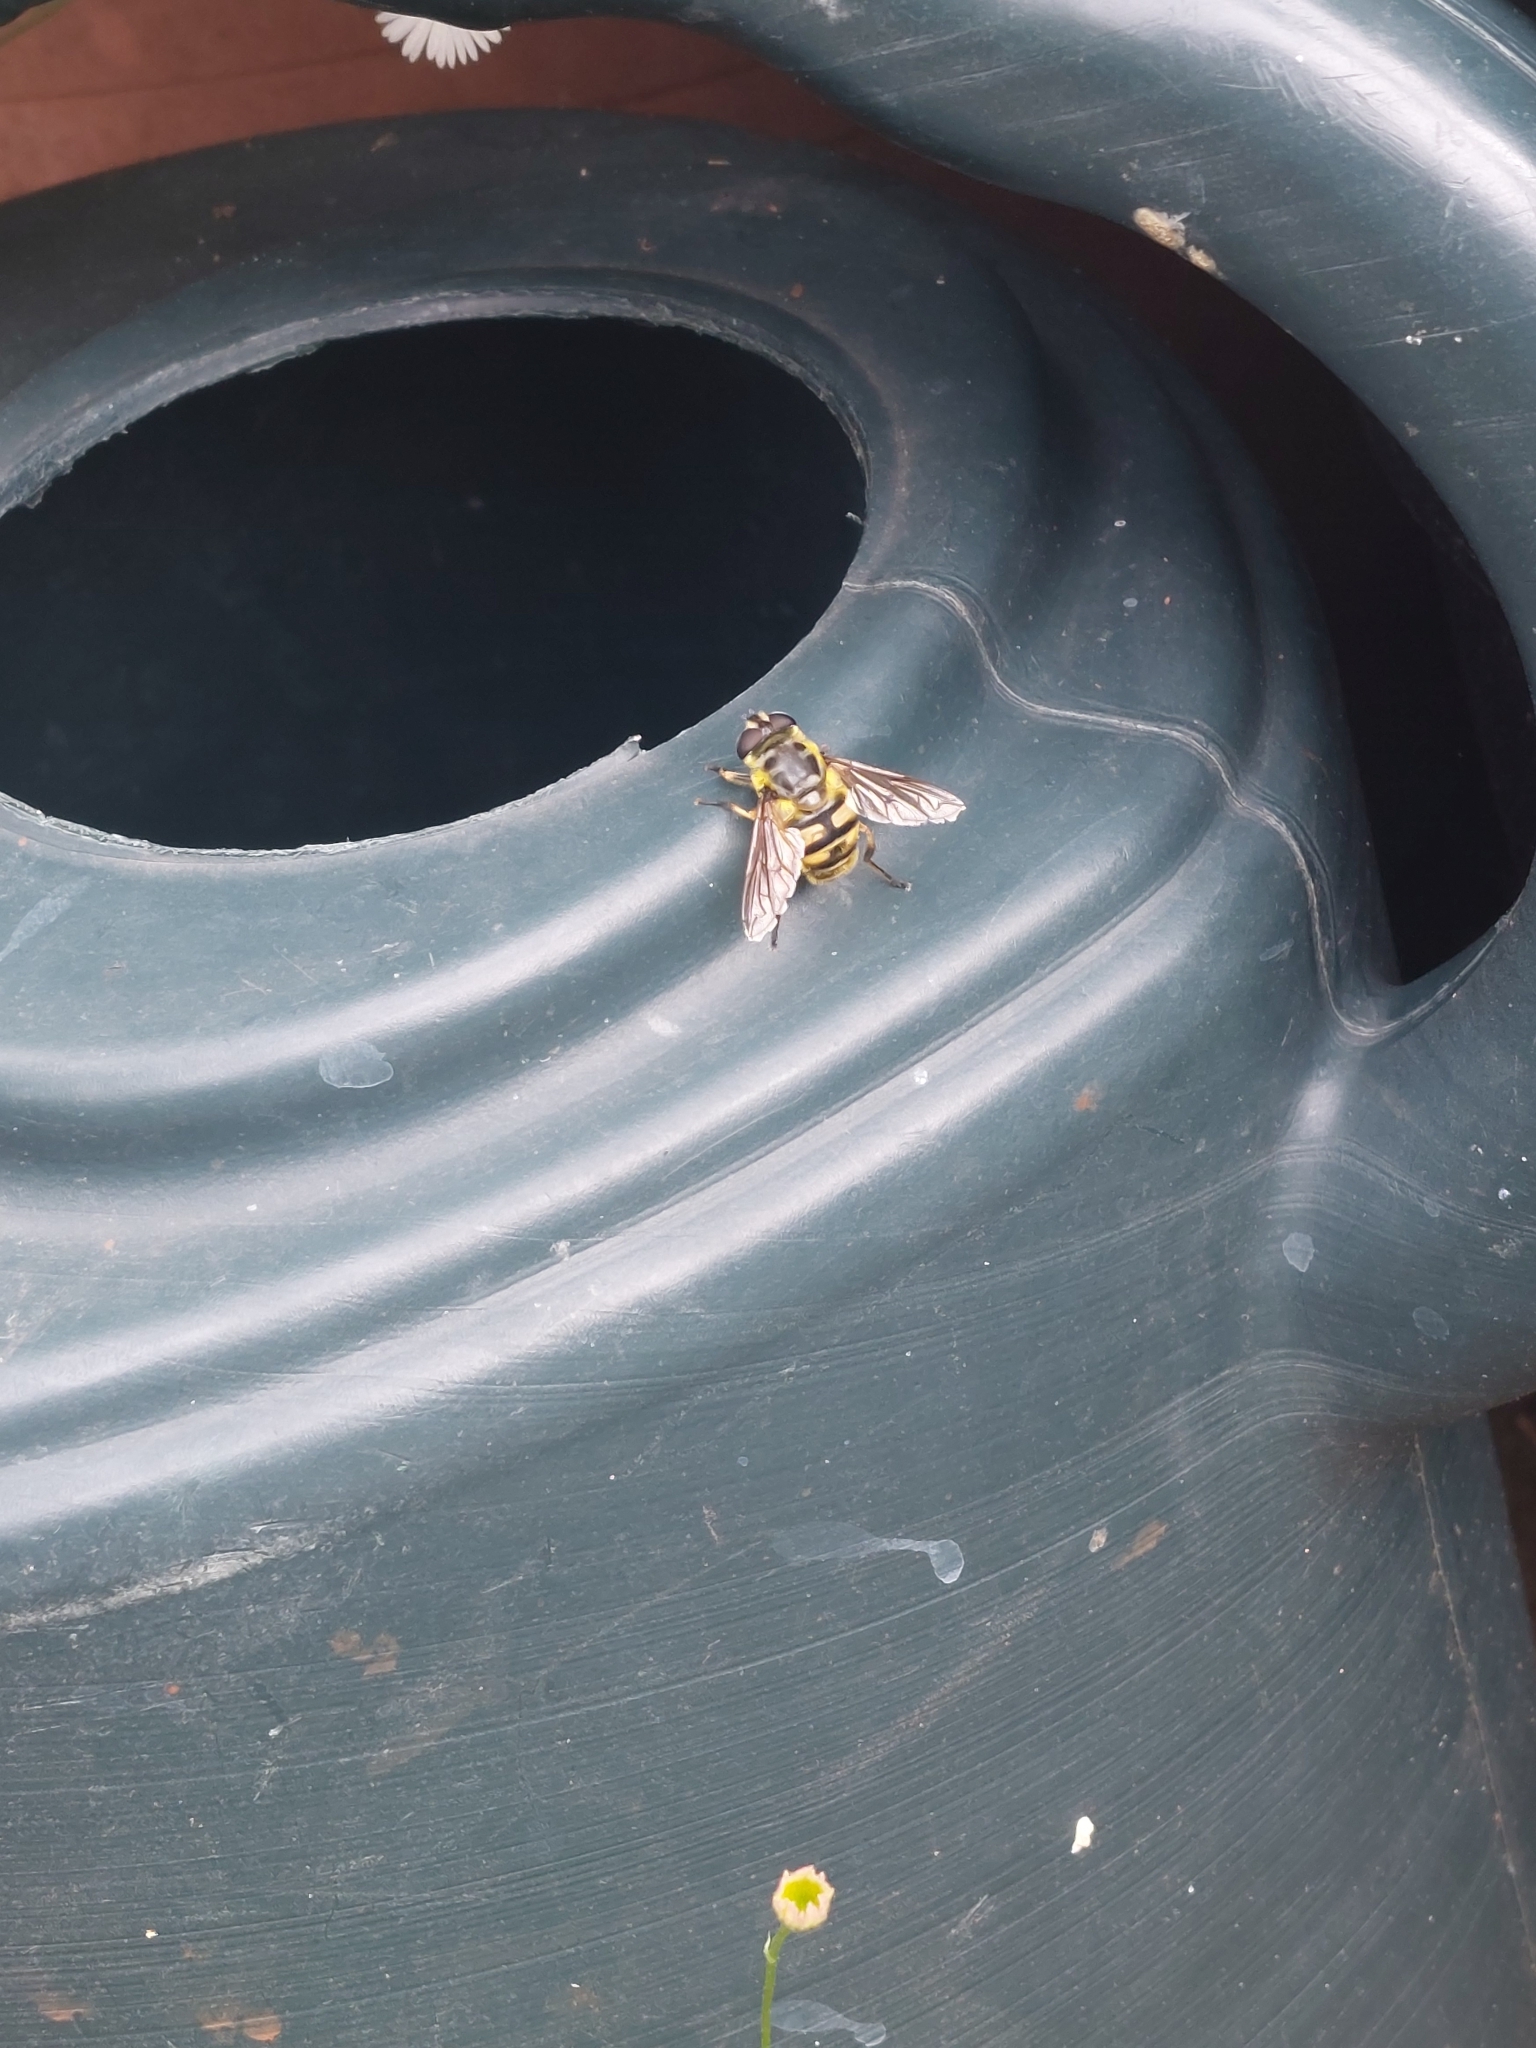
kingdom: Animalia
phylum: Arthropoda
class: Insecta
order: Diptera
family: Syrphidae
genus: Myathropa
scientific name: Myathropa florea
